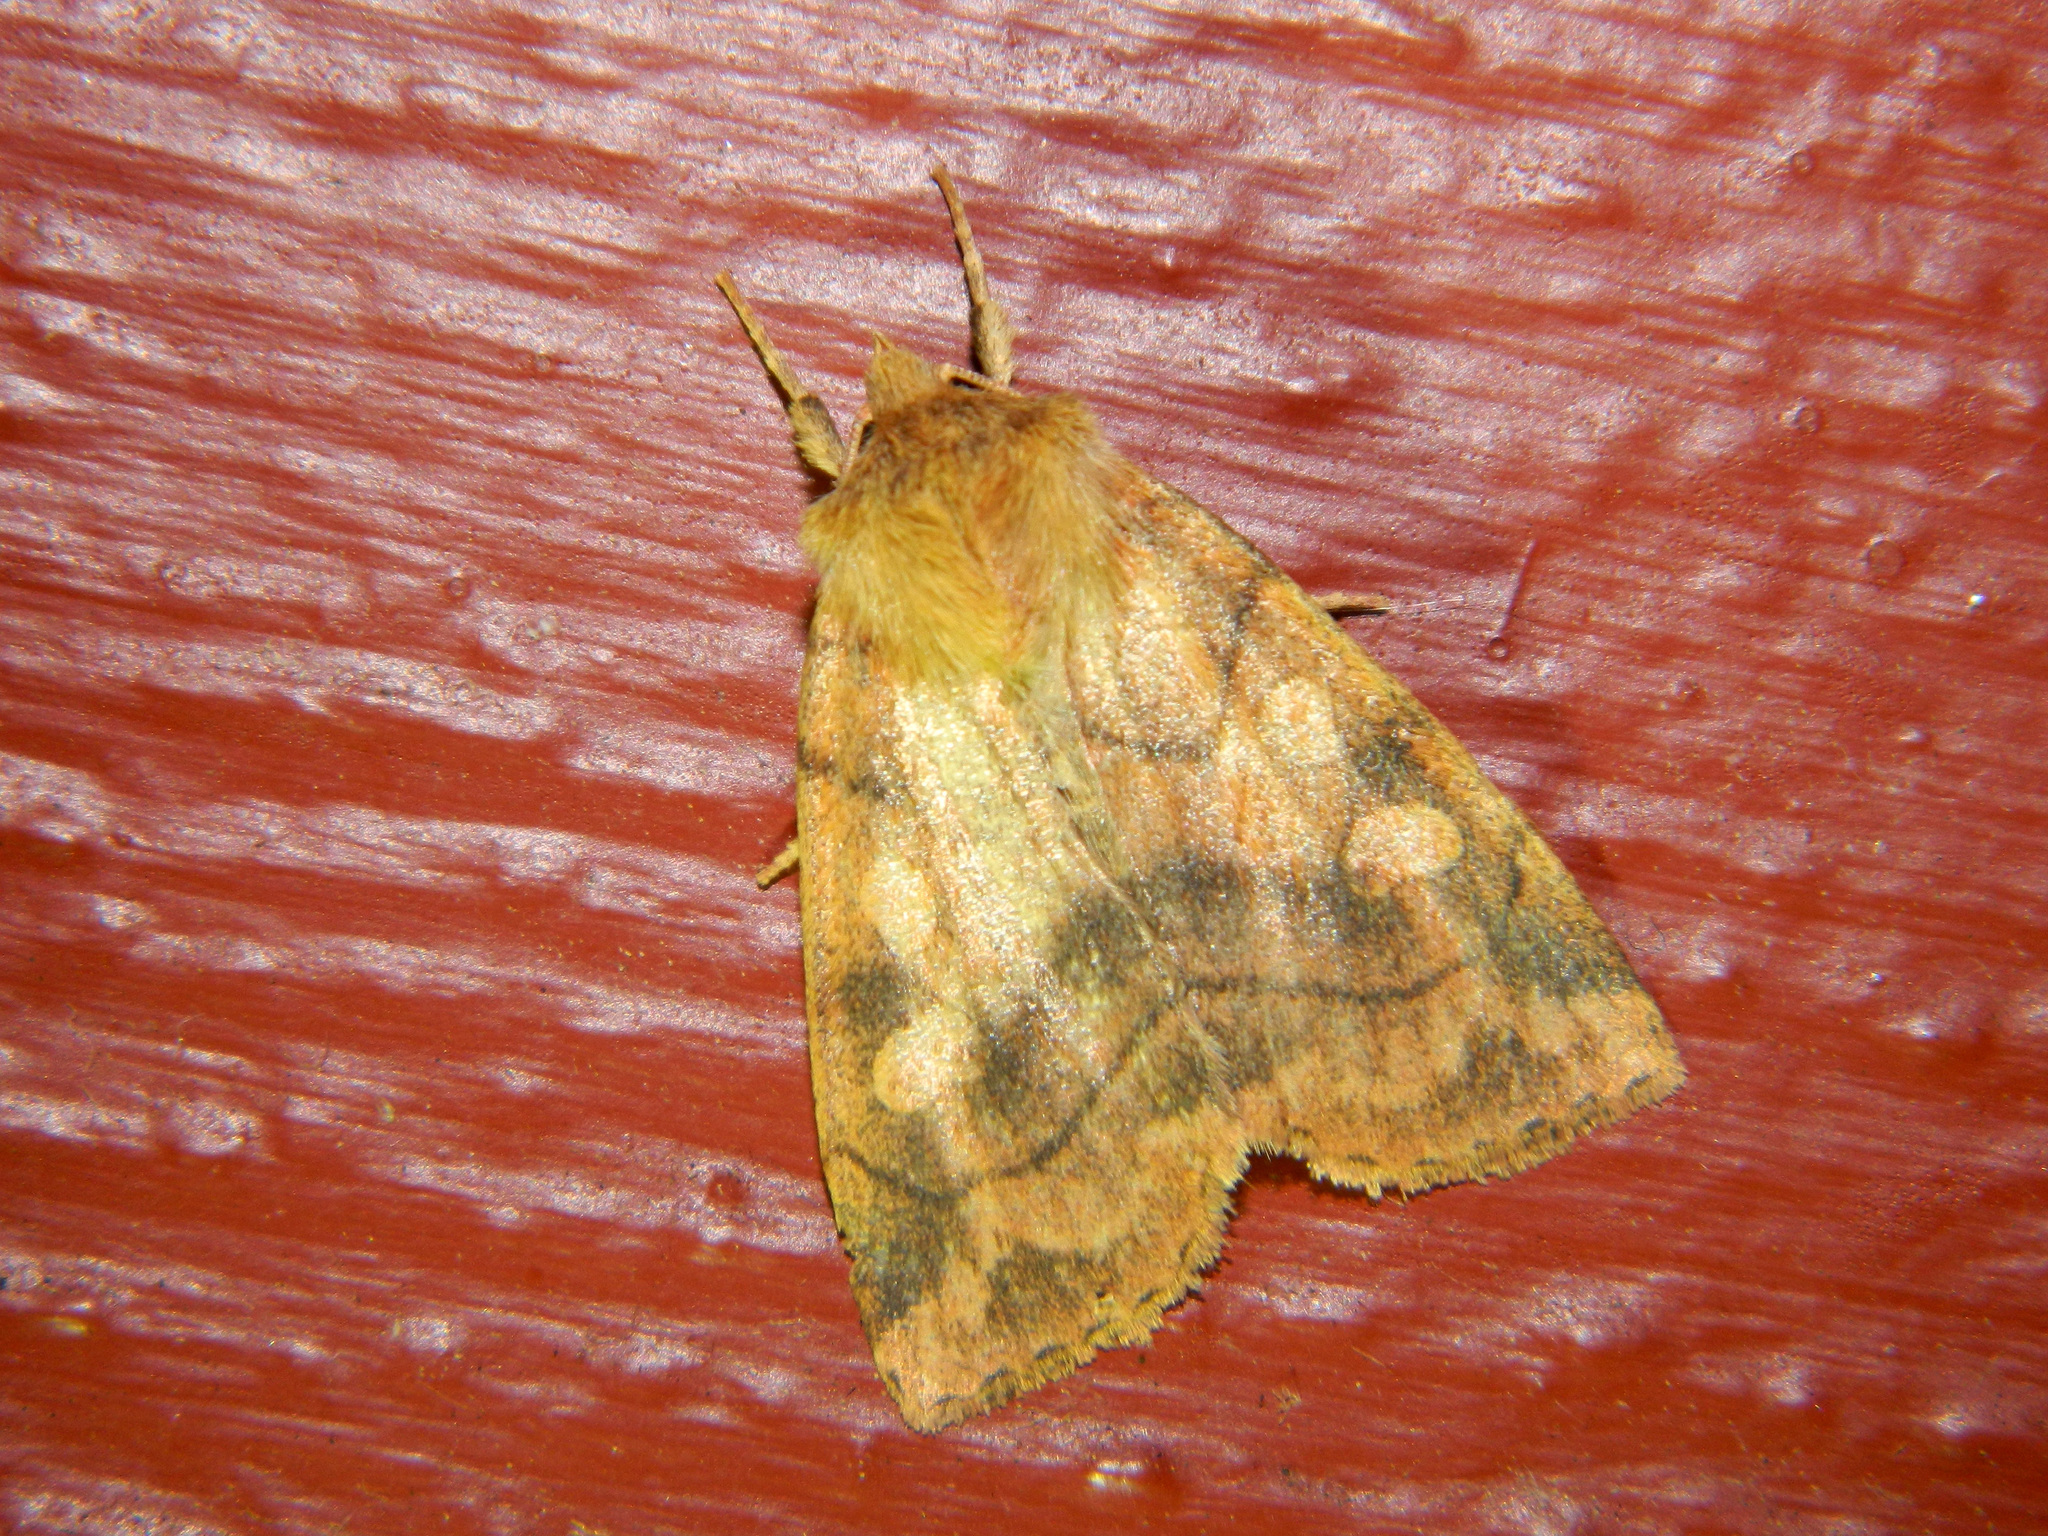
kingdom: Animalia
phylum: Arthropoda
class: Insecta
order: Lepidoptera
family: Noctuidae
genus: Enargia
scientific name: Enargia decolor
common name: Aspen twoleaf tier moth
